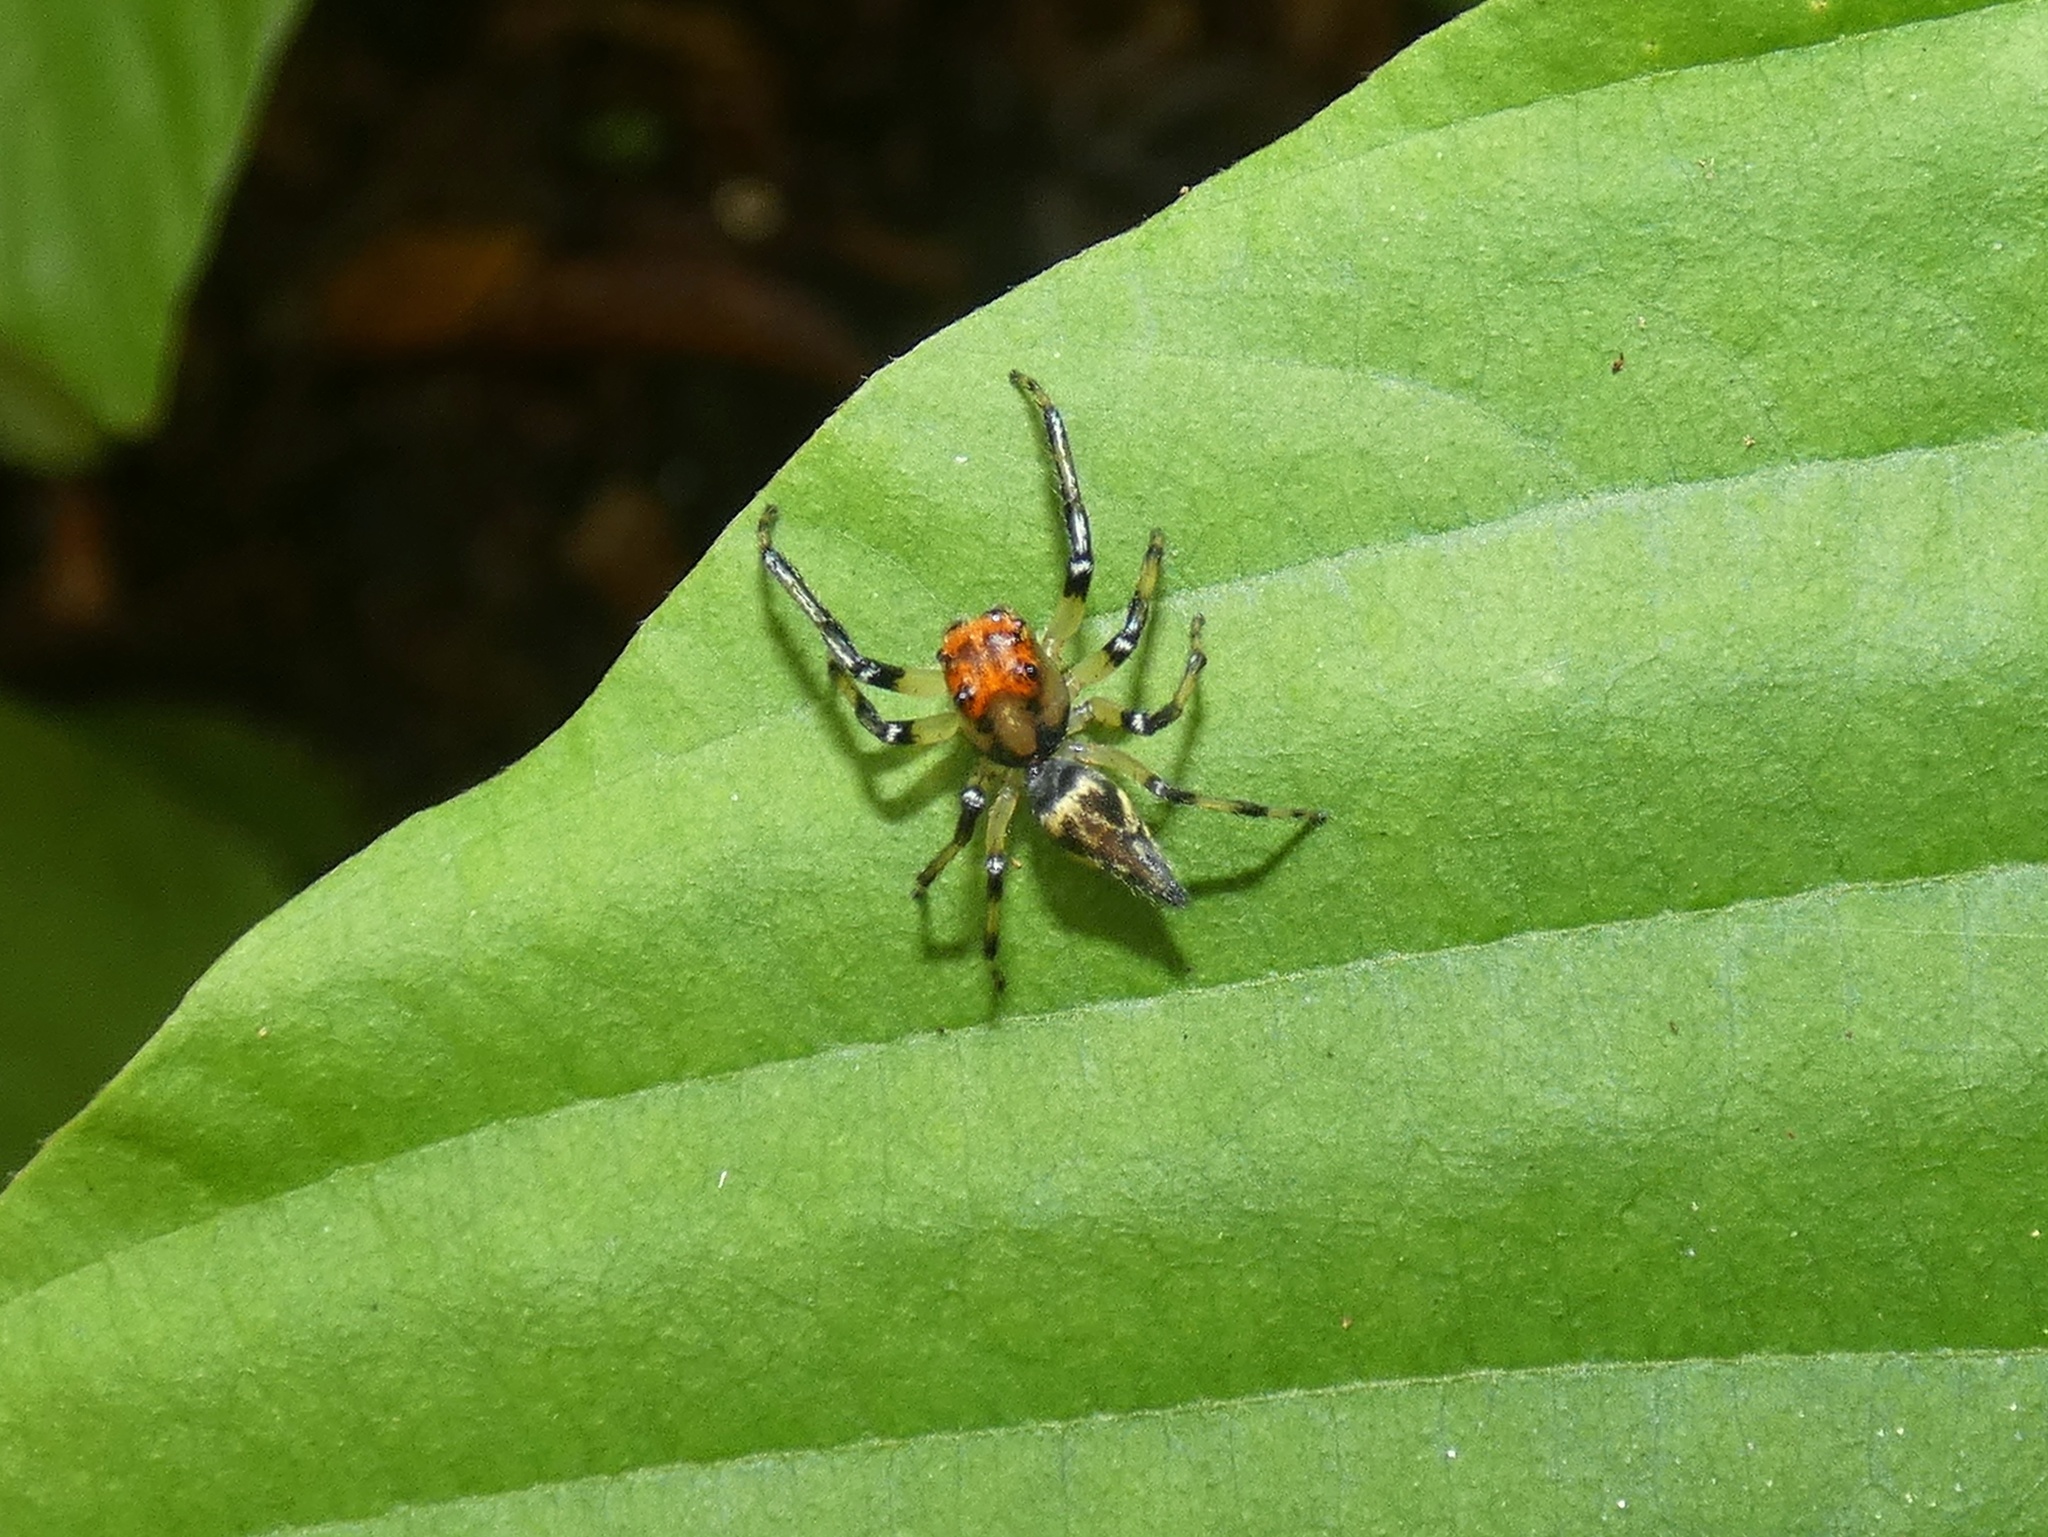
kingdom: Animalia
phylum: Arthropoda
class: Arachnida
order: Araneae
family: Salticidae
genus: Hypaeus
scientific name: Hypaeus benignus
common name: Jumping spiders
